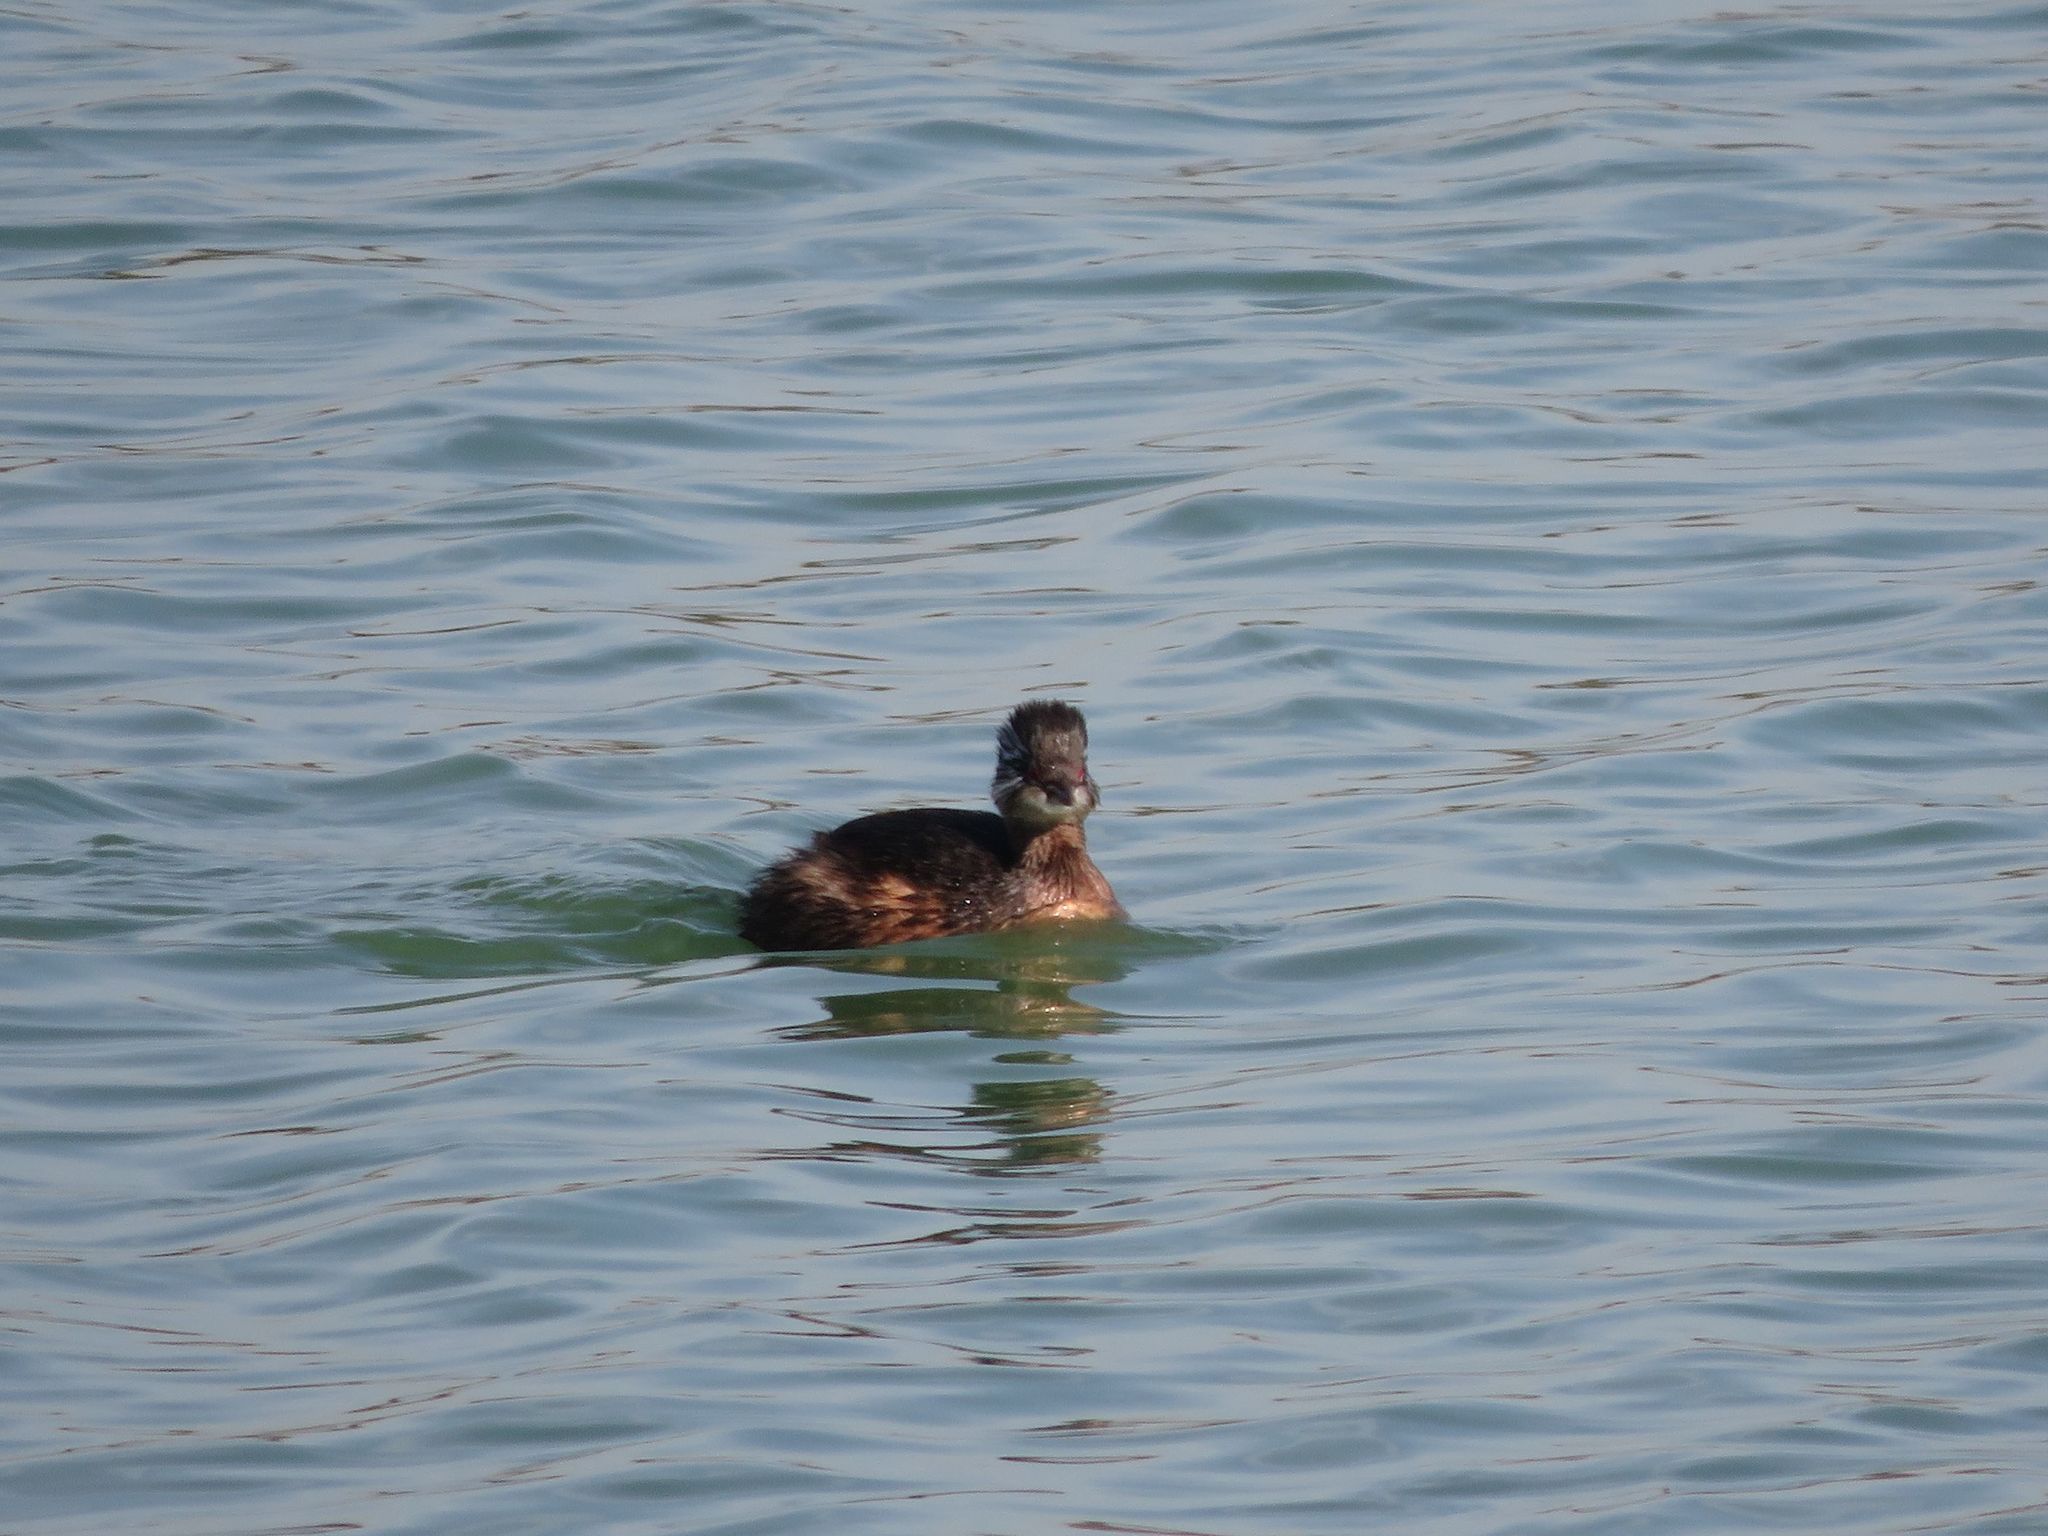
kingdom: Animalia
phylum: Chordata
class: Aves
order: Podicipediformes
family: Podicipedidae
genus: Rollandia
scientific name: Rollandia rolland
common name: White-tufted grebe
